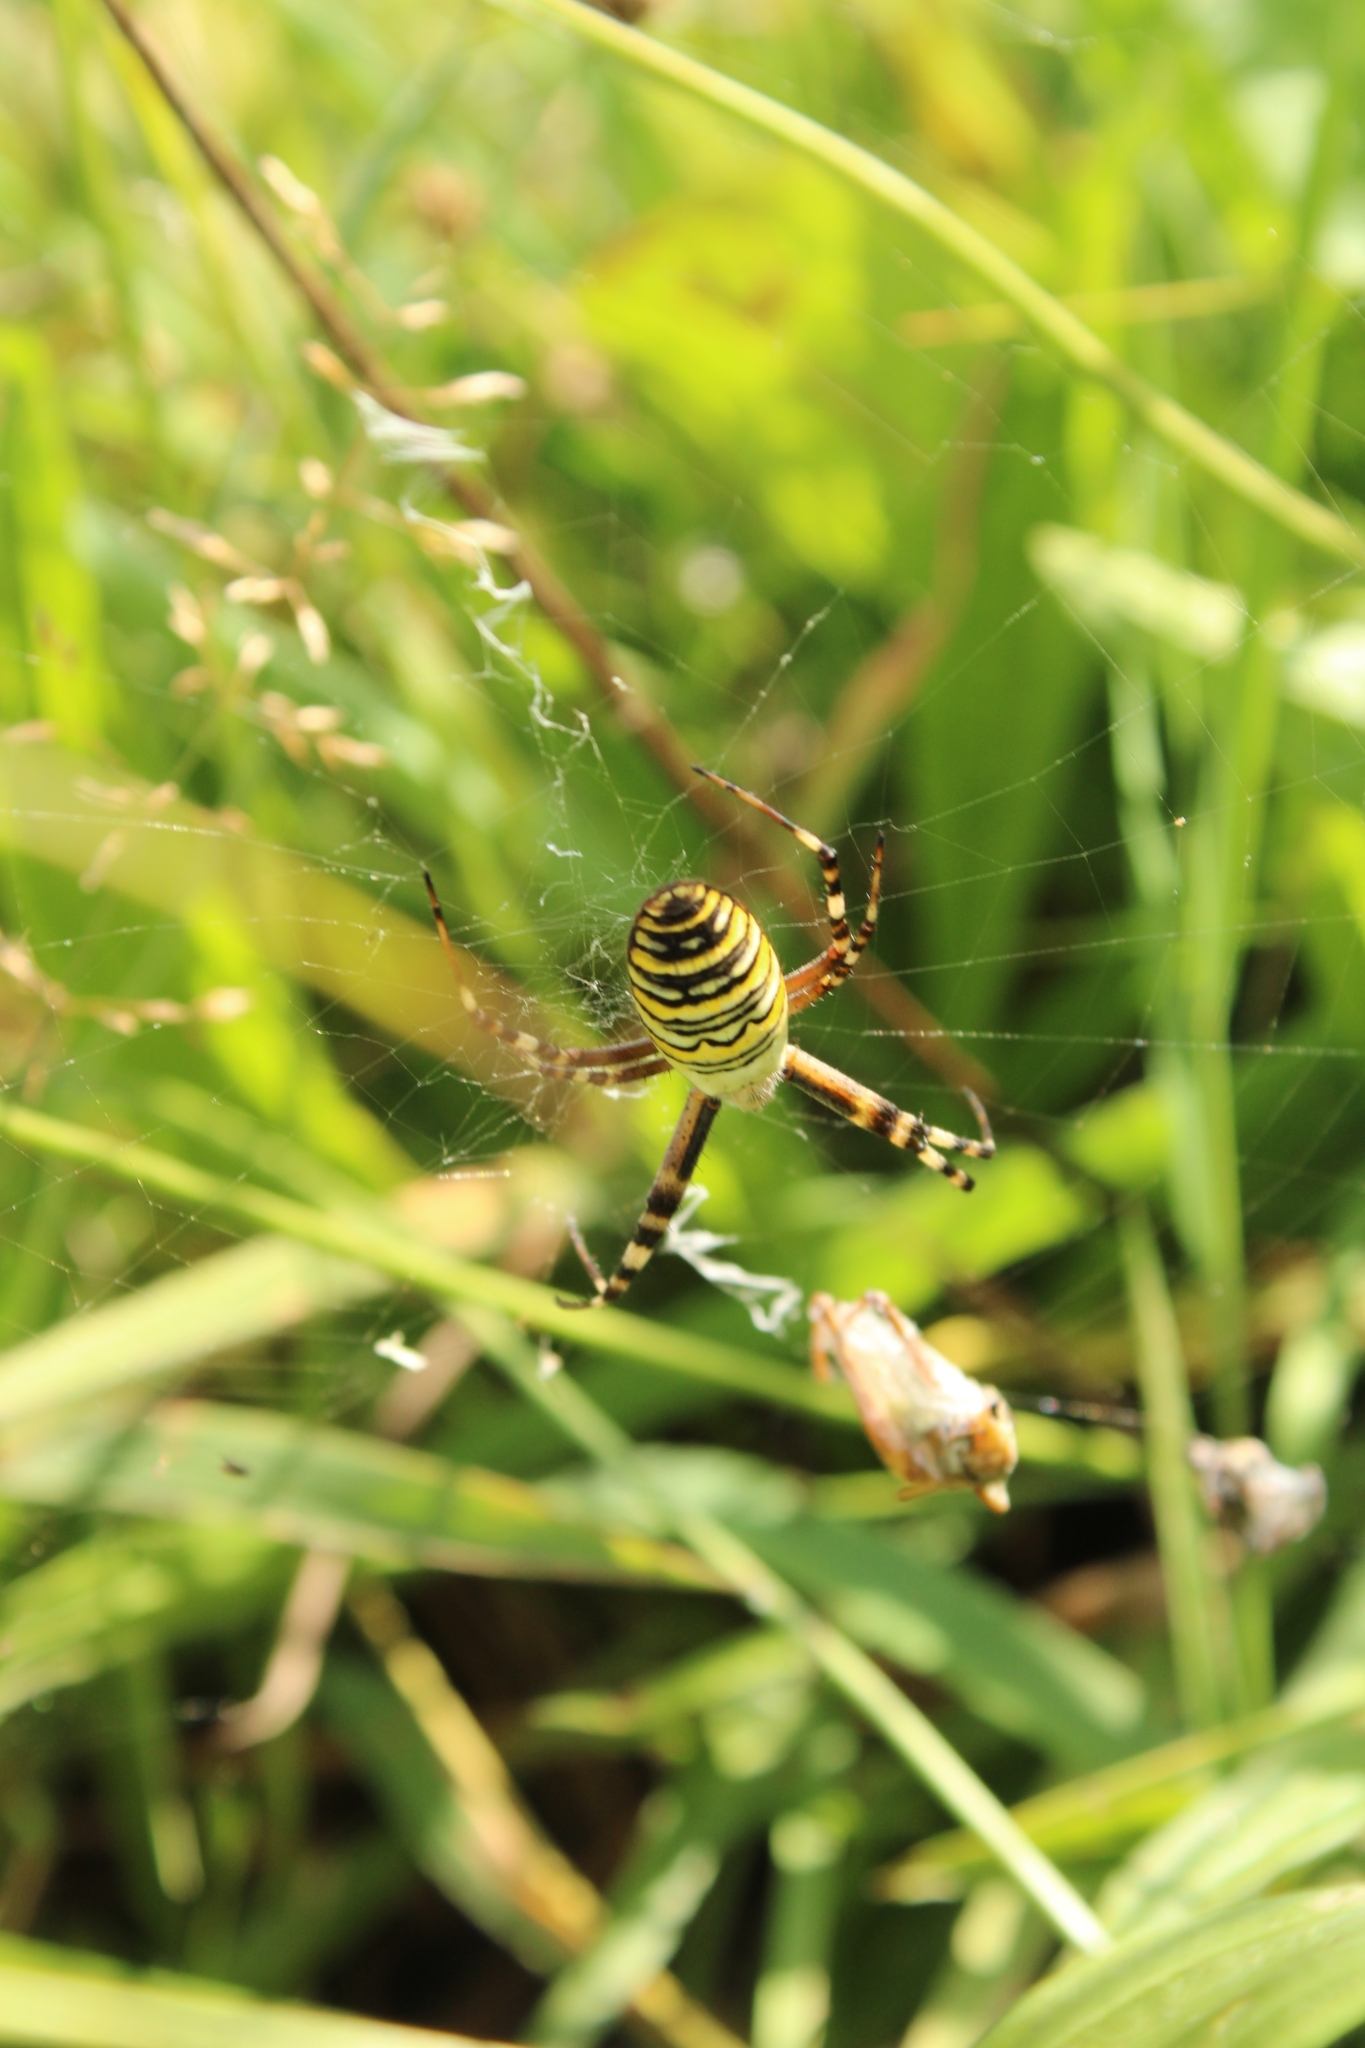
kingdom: Animalia
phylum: Arthropoda
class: Arachnida
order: Araneae
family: Araneidae
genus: Argiope
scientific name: Argiope bruennichi
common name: Wasp spider
